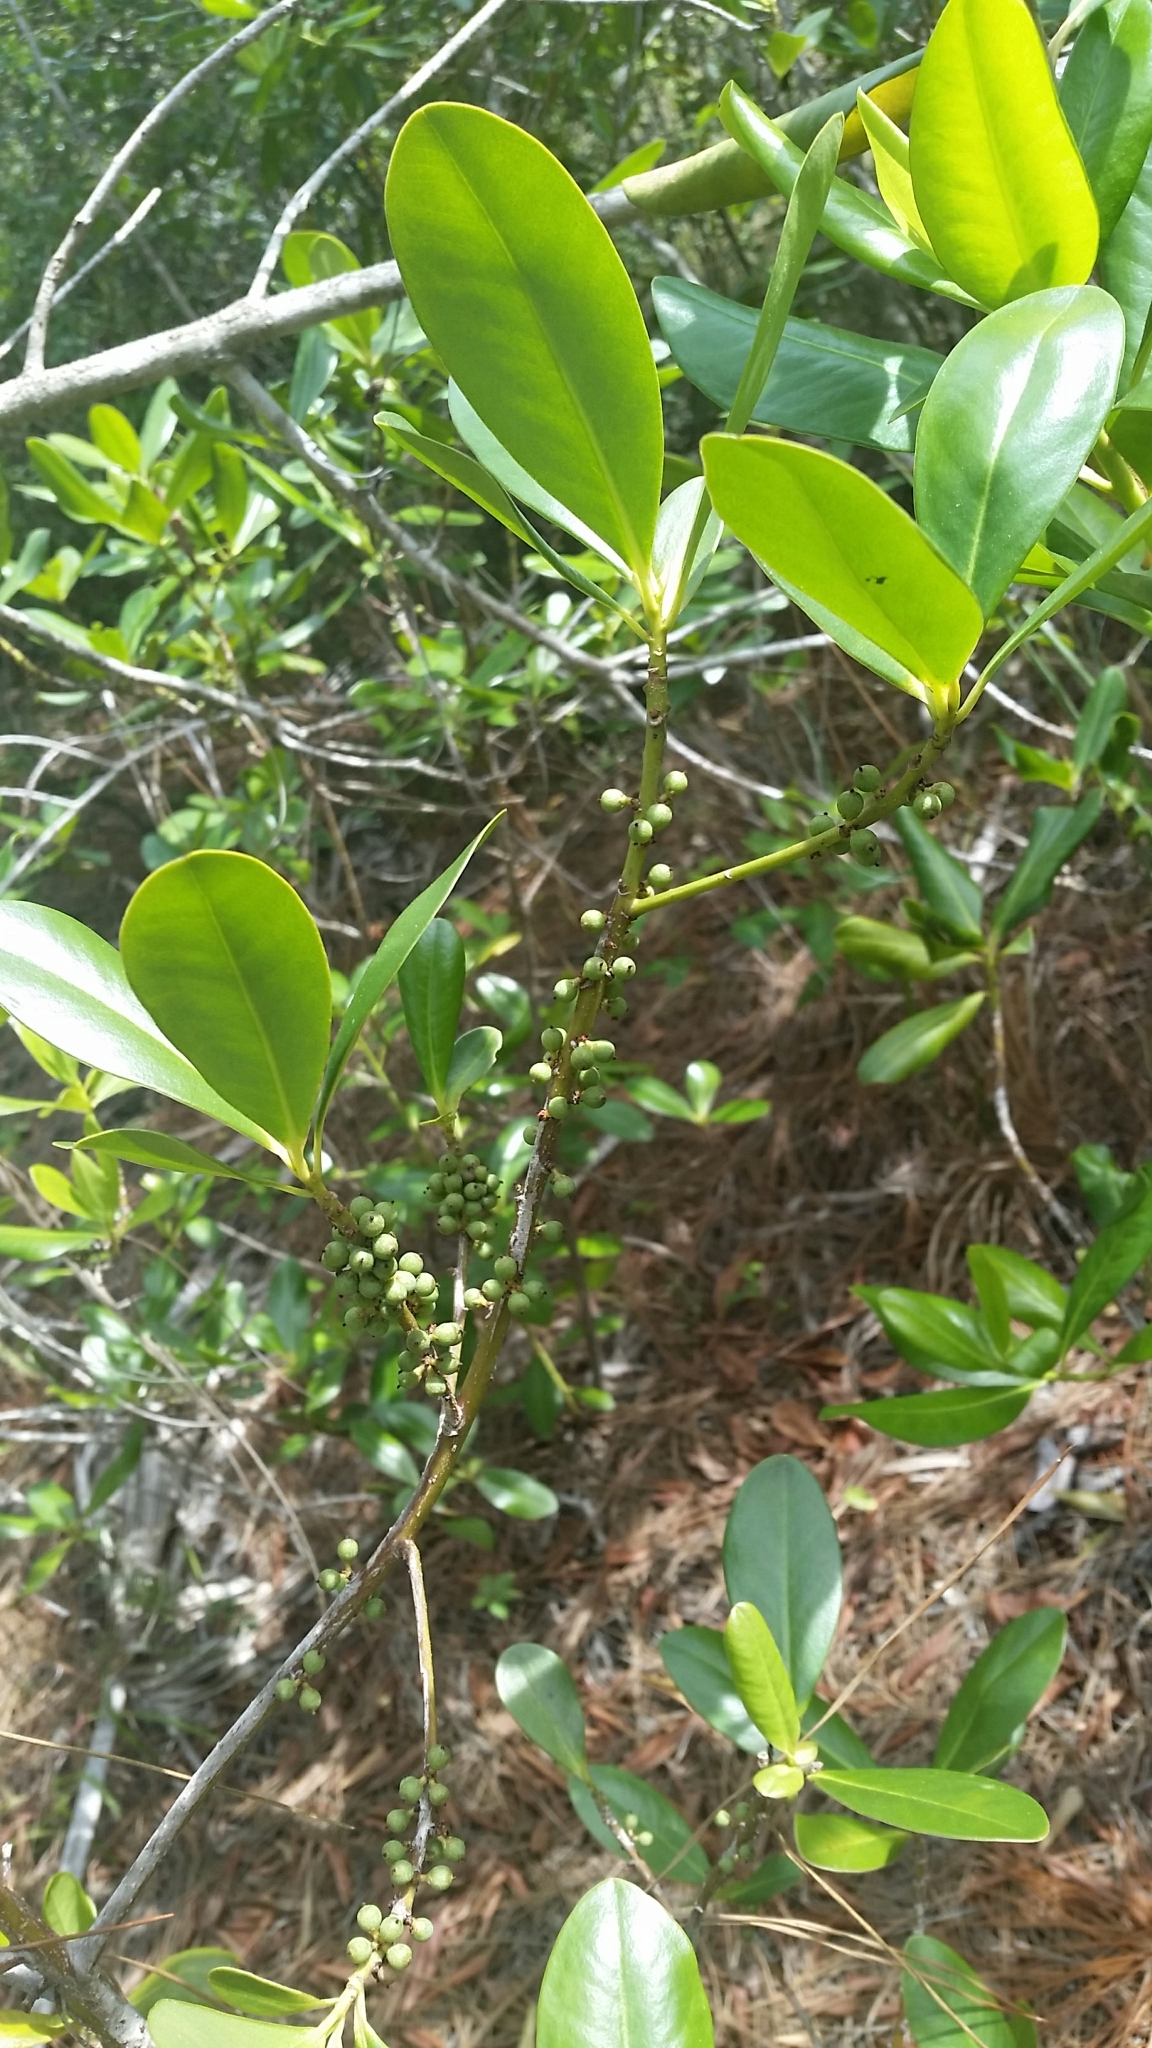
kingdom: Plantae
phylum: Tracheophyta
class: Magnoliopsida
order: Ericales
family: Primulaceae
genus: Myrsine
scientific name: Myrsine floridana
